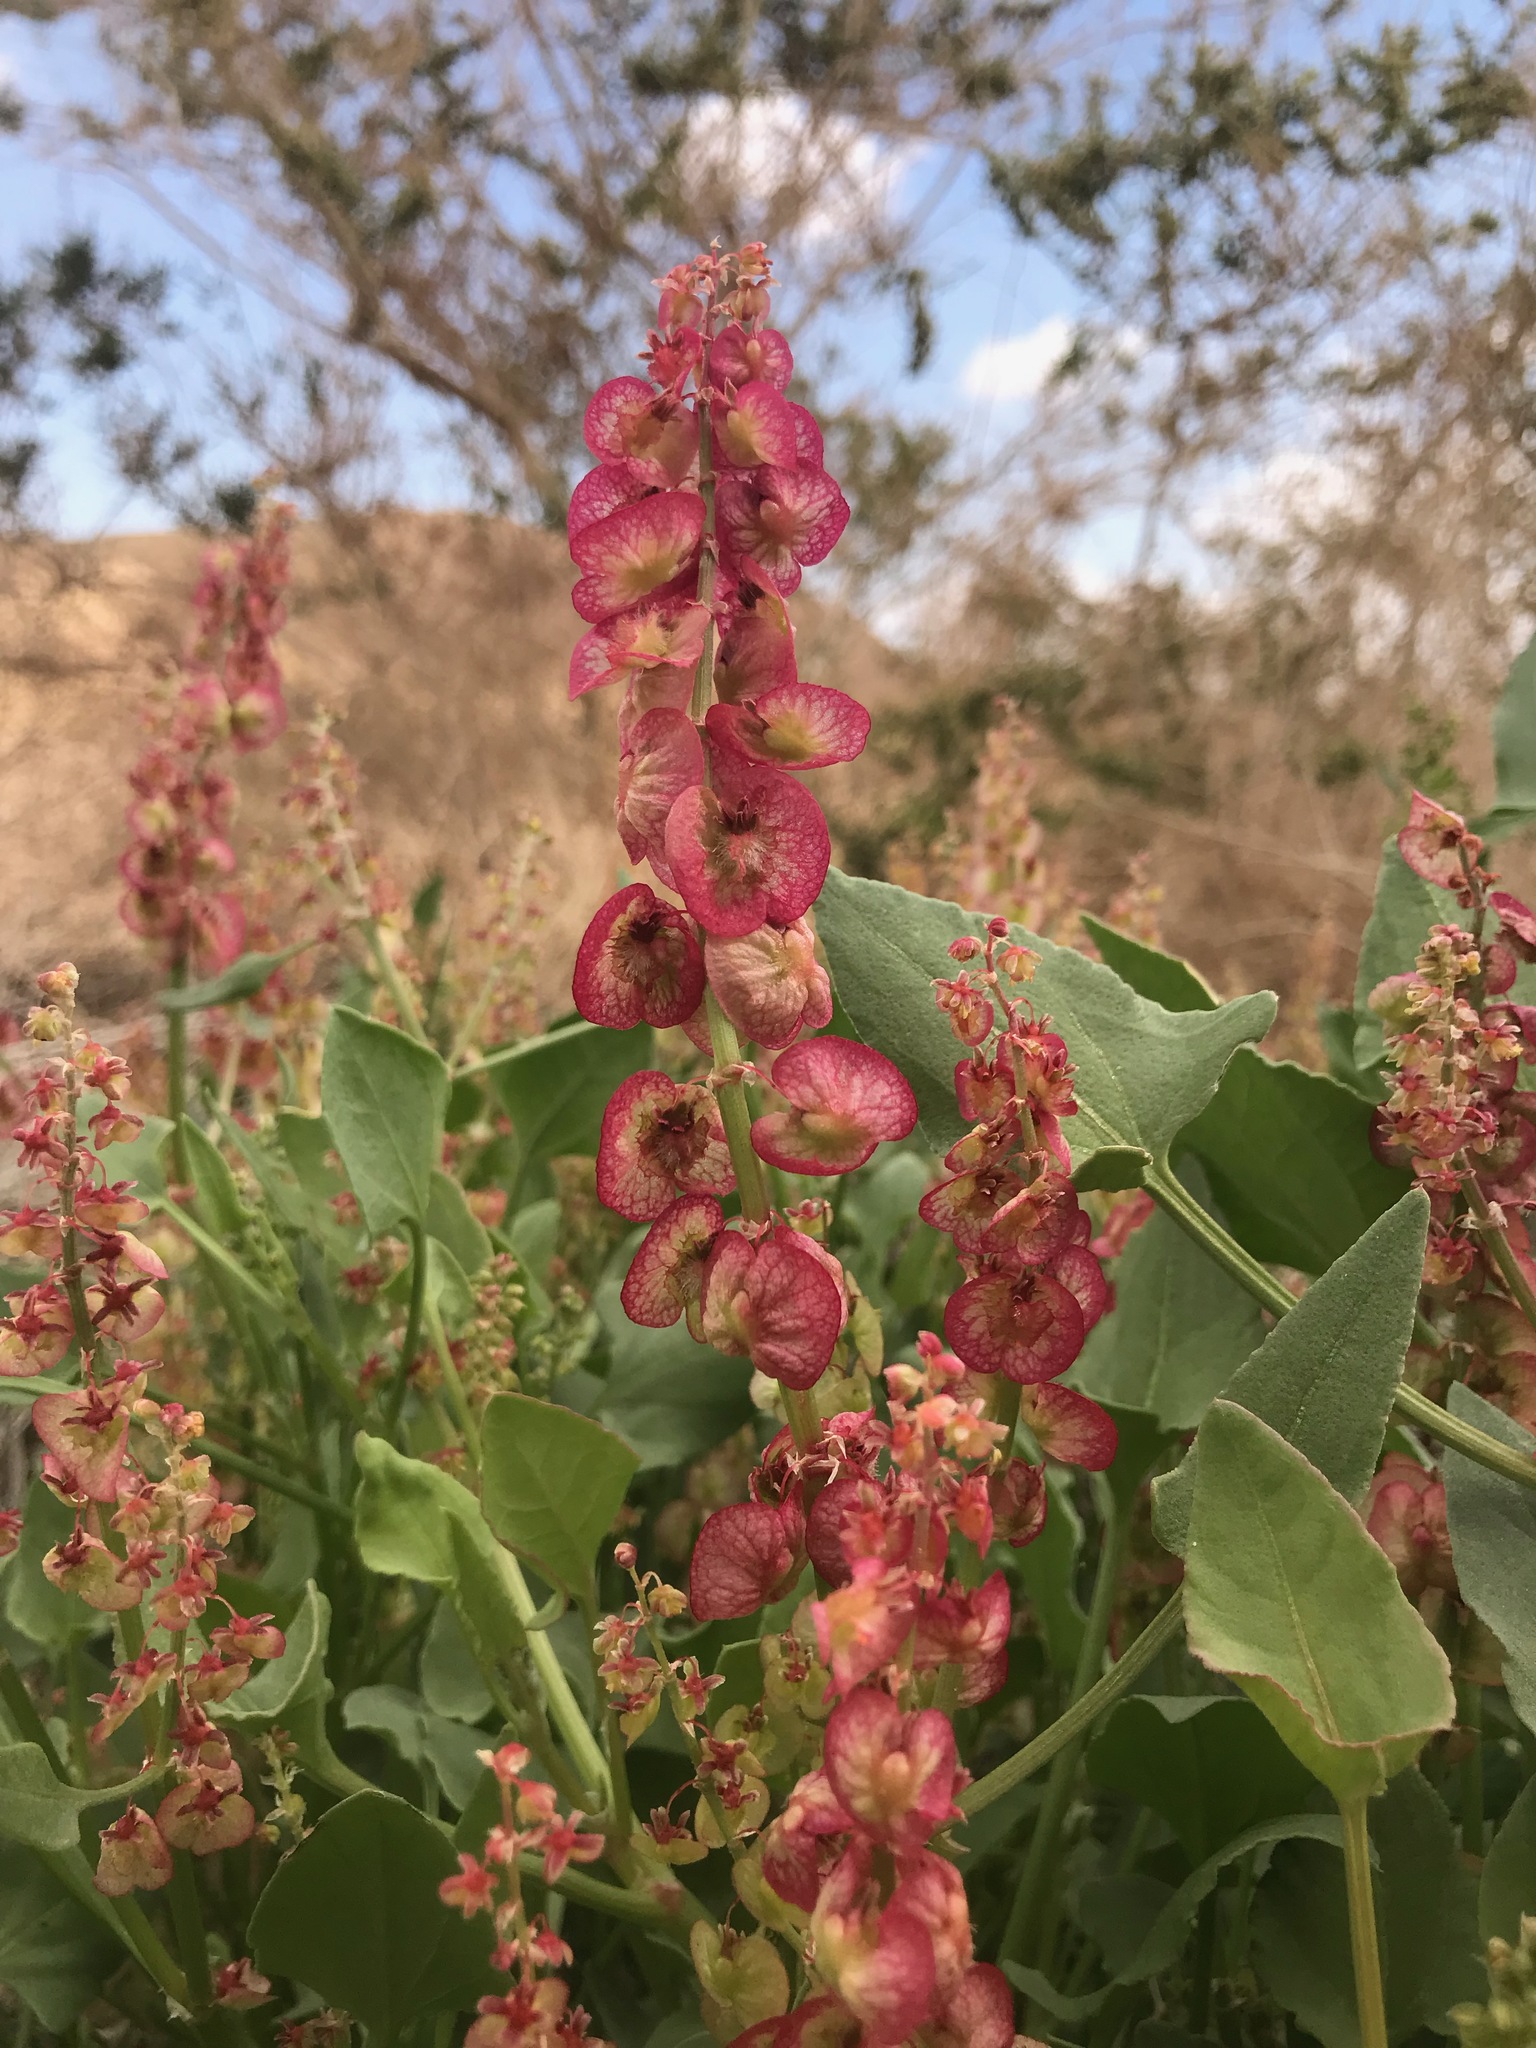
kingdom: Plantae
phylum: Tracheophyta
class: Magnoliopsida
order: Caryophyllales
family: Polygonaceae
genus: Rumex
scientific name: Rumex cyprius
